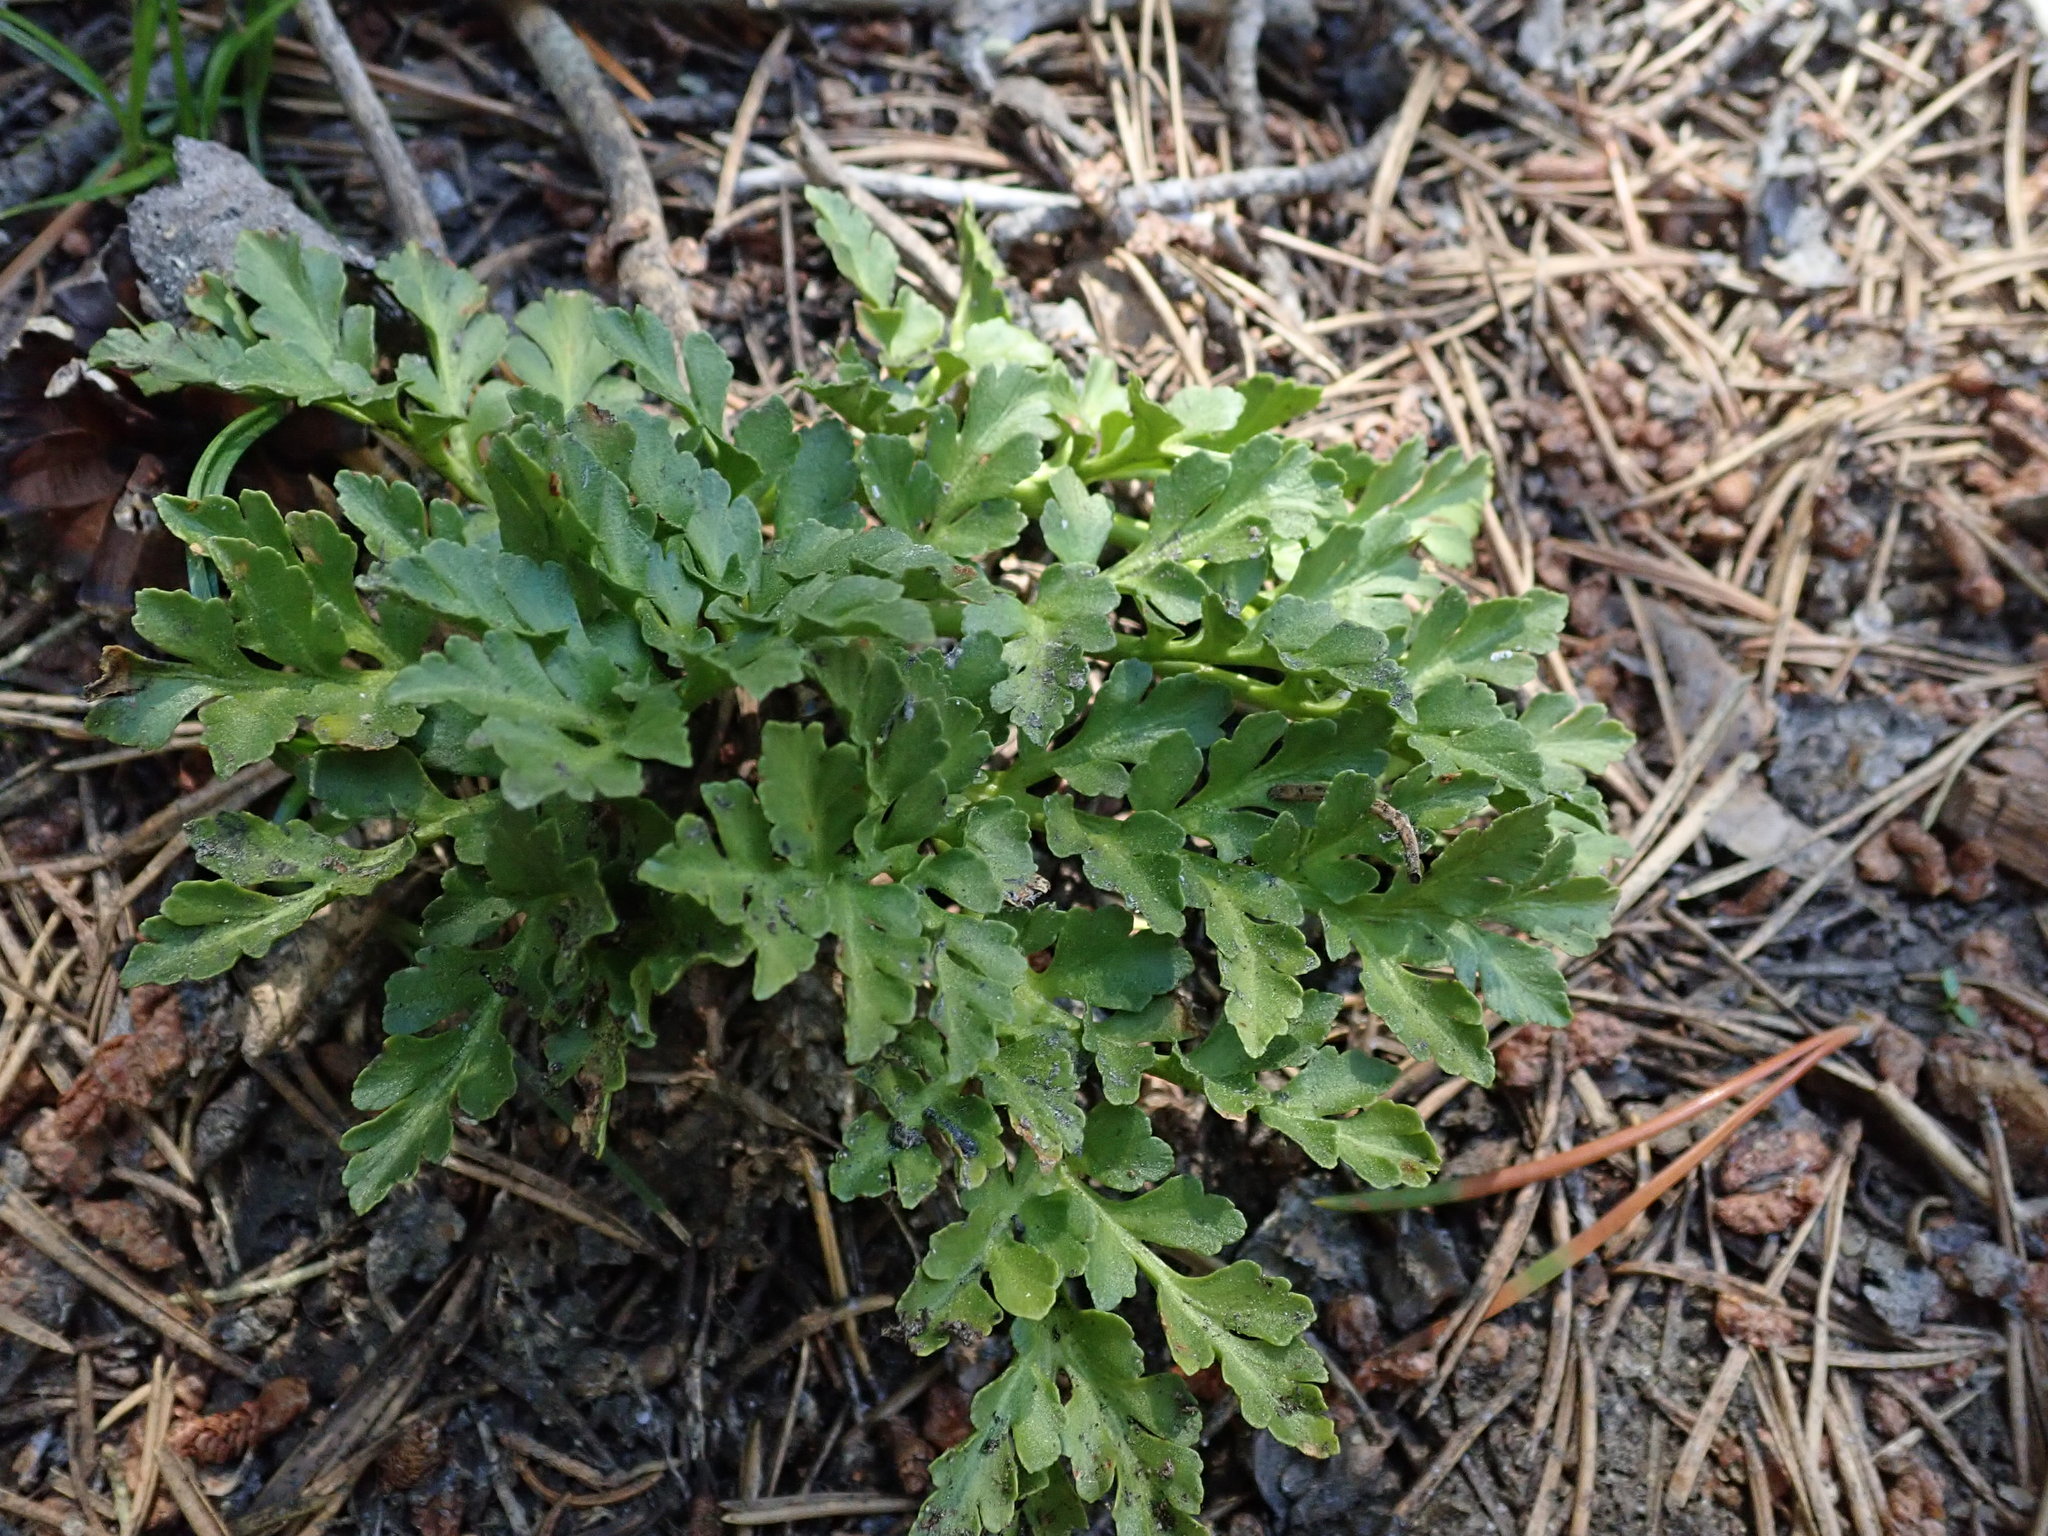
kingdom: Plantae
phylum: Tracheophyta
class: Polypodiopsida
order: Ophioglossales
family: Ophioglossaceae
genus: Sceptridium
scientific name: Sceptridium multifidum
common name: Leathery grape fern
